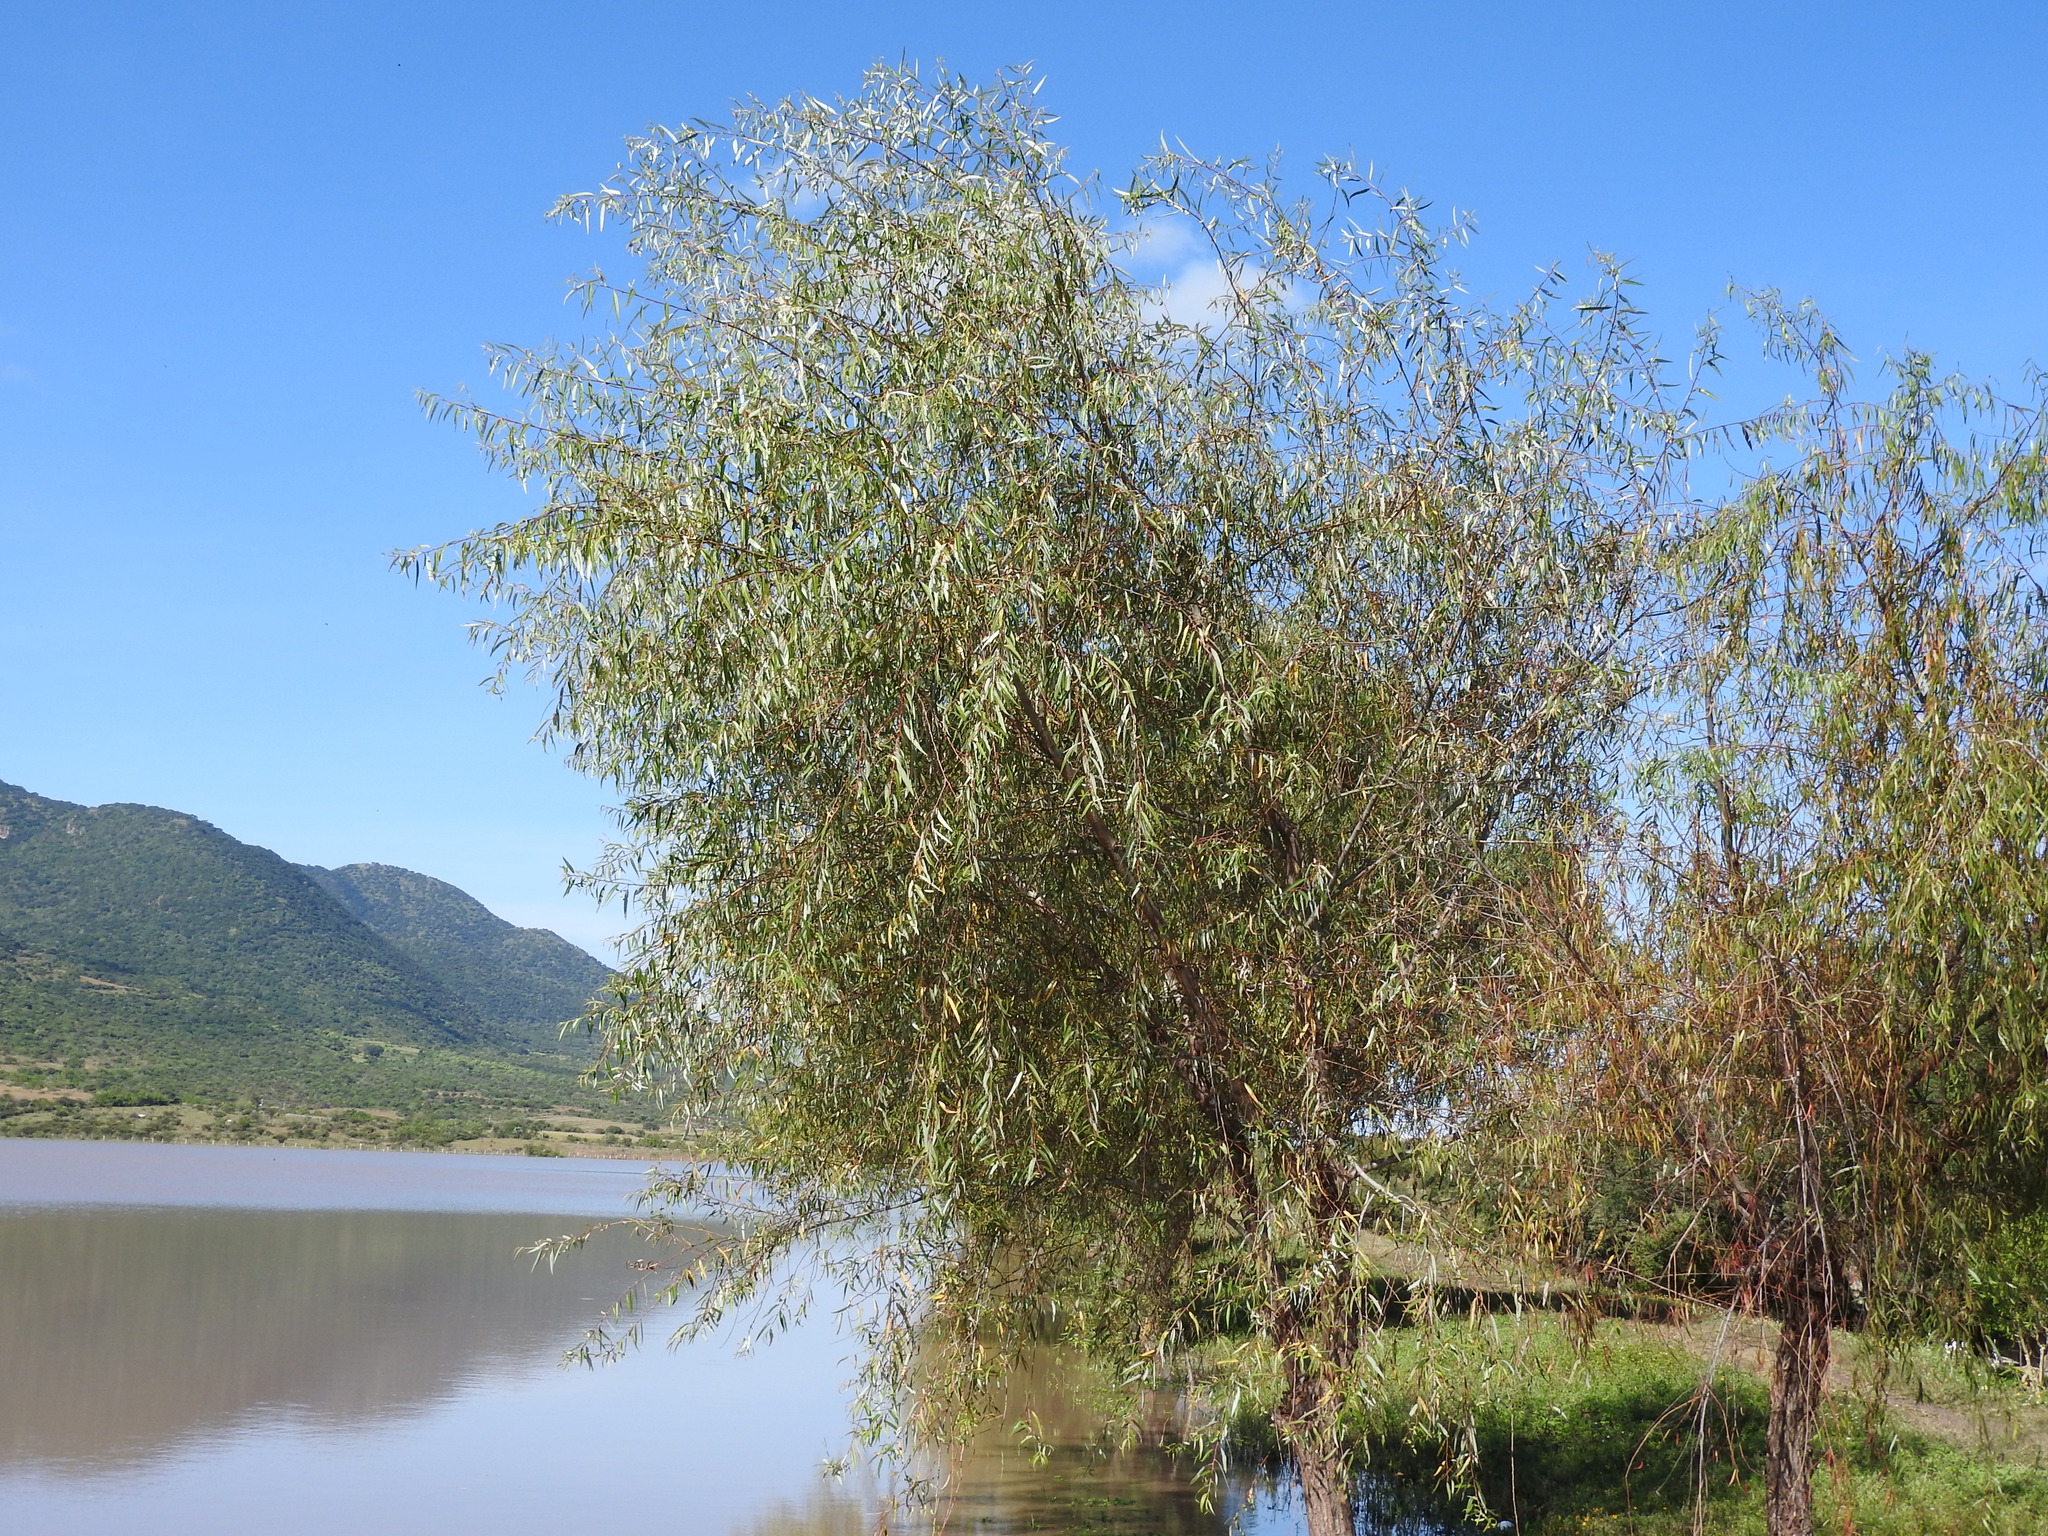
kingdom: Plantae
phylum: Tracheophyta
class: Magnoliopsida
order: Malpighiales
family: Salicaceae
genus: Salix
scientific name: Salix bonplandiana
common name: Bonpland’s willow
